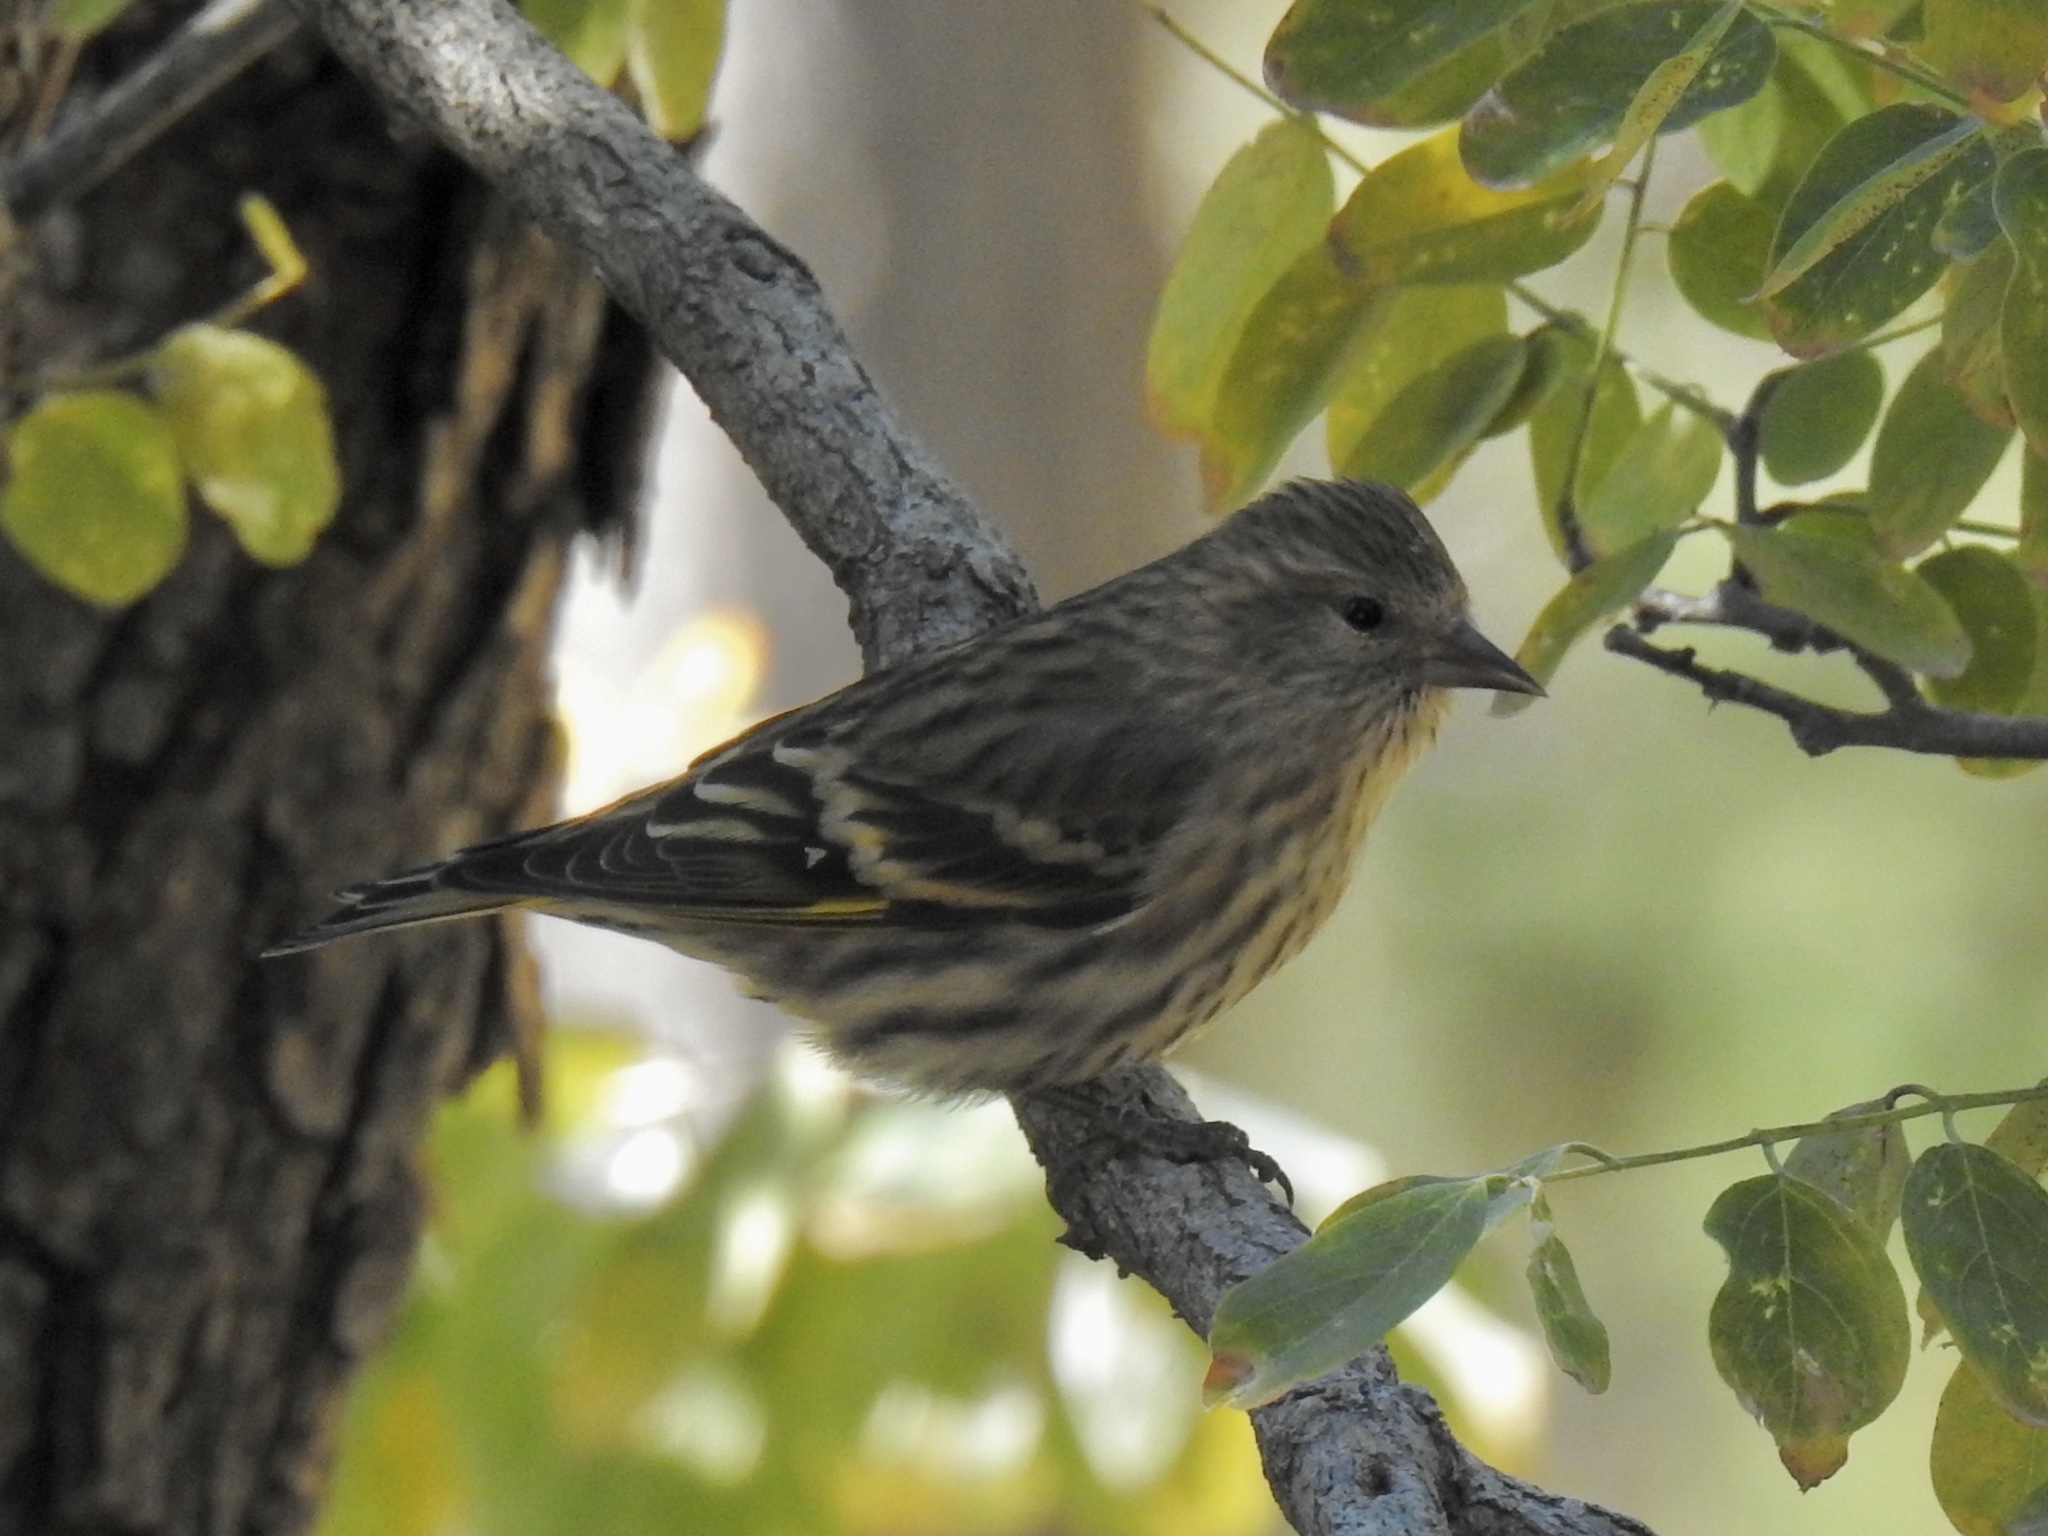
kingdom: Animalia
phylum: Chordata
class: Aves
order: Passeriformes
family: Fringillidae
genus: Spinus
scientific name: Spinus pinus
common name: Pine siskin
